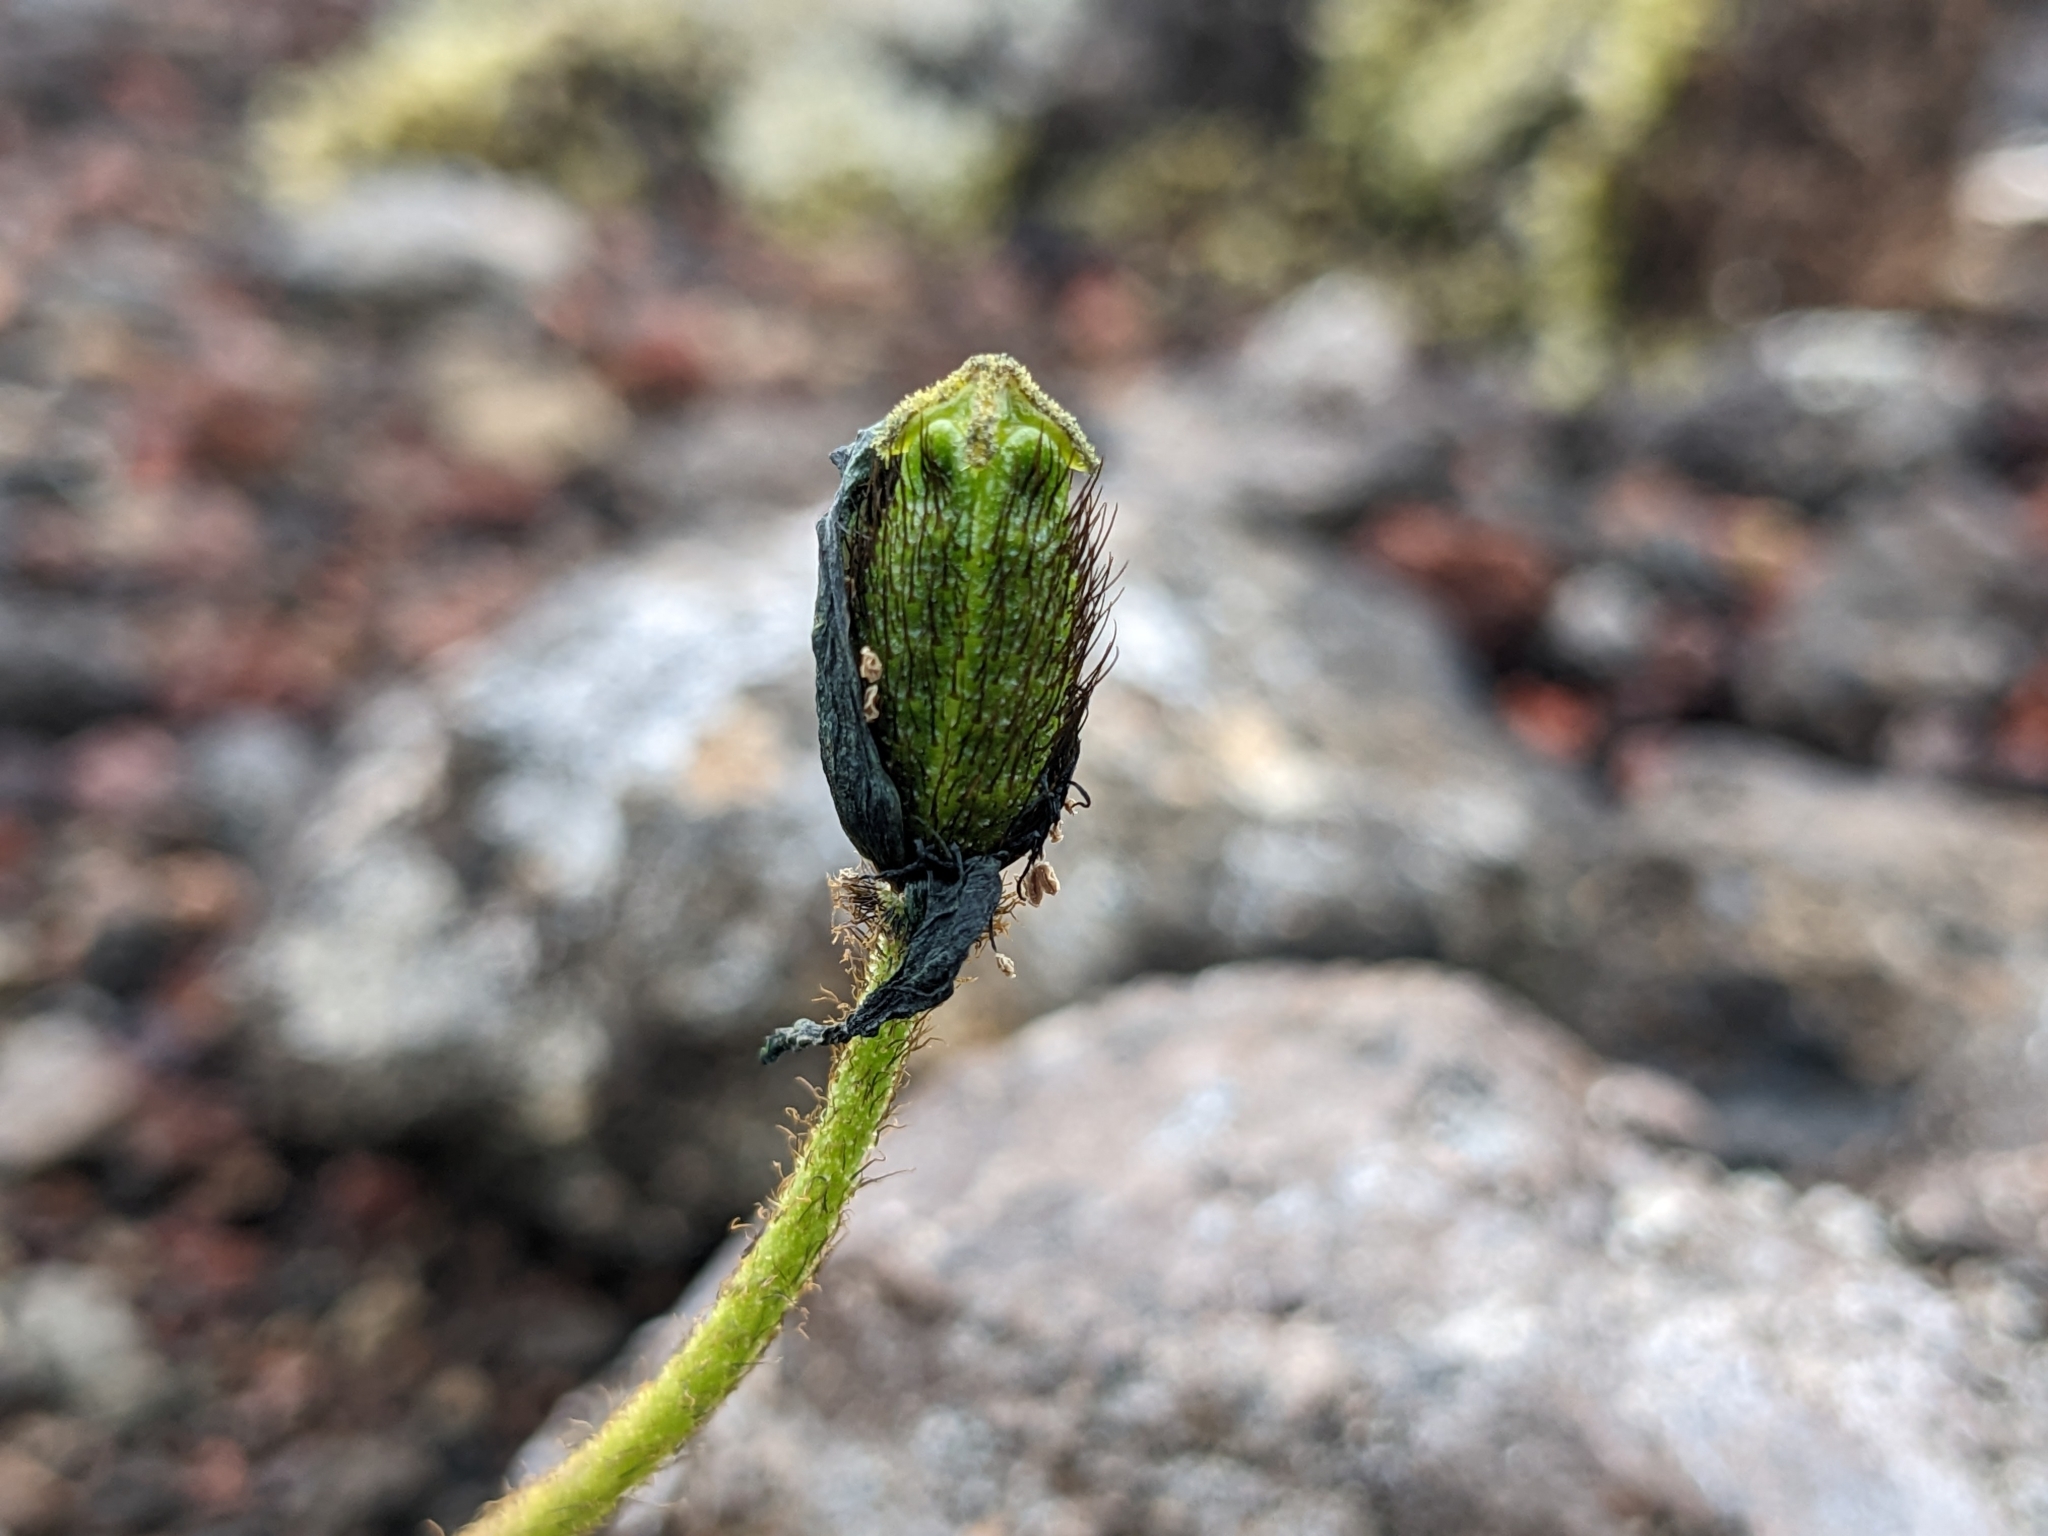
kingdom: Plantae
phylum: Tracheophyta
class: Magnoliopsida
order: Ranunculales
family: Papaveraceae
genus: Papaver
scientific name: Papaver radicatum
